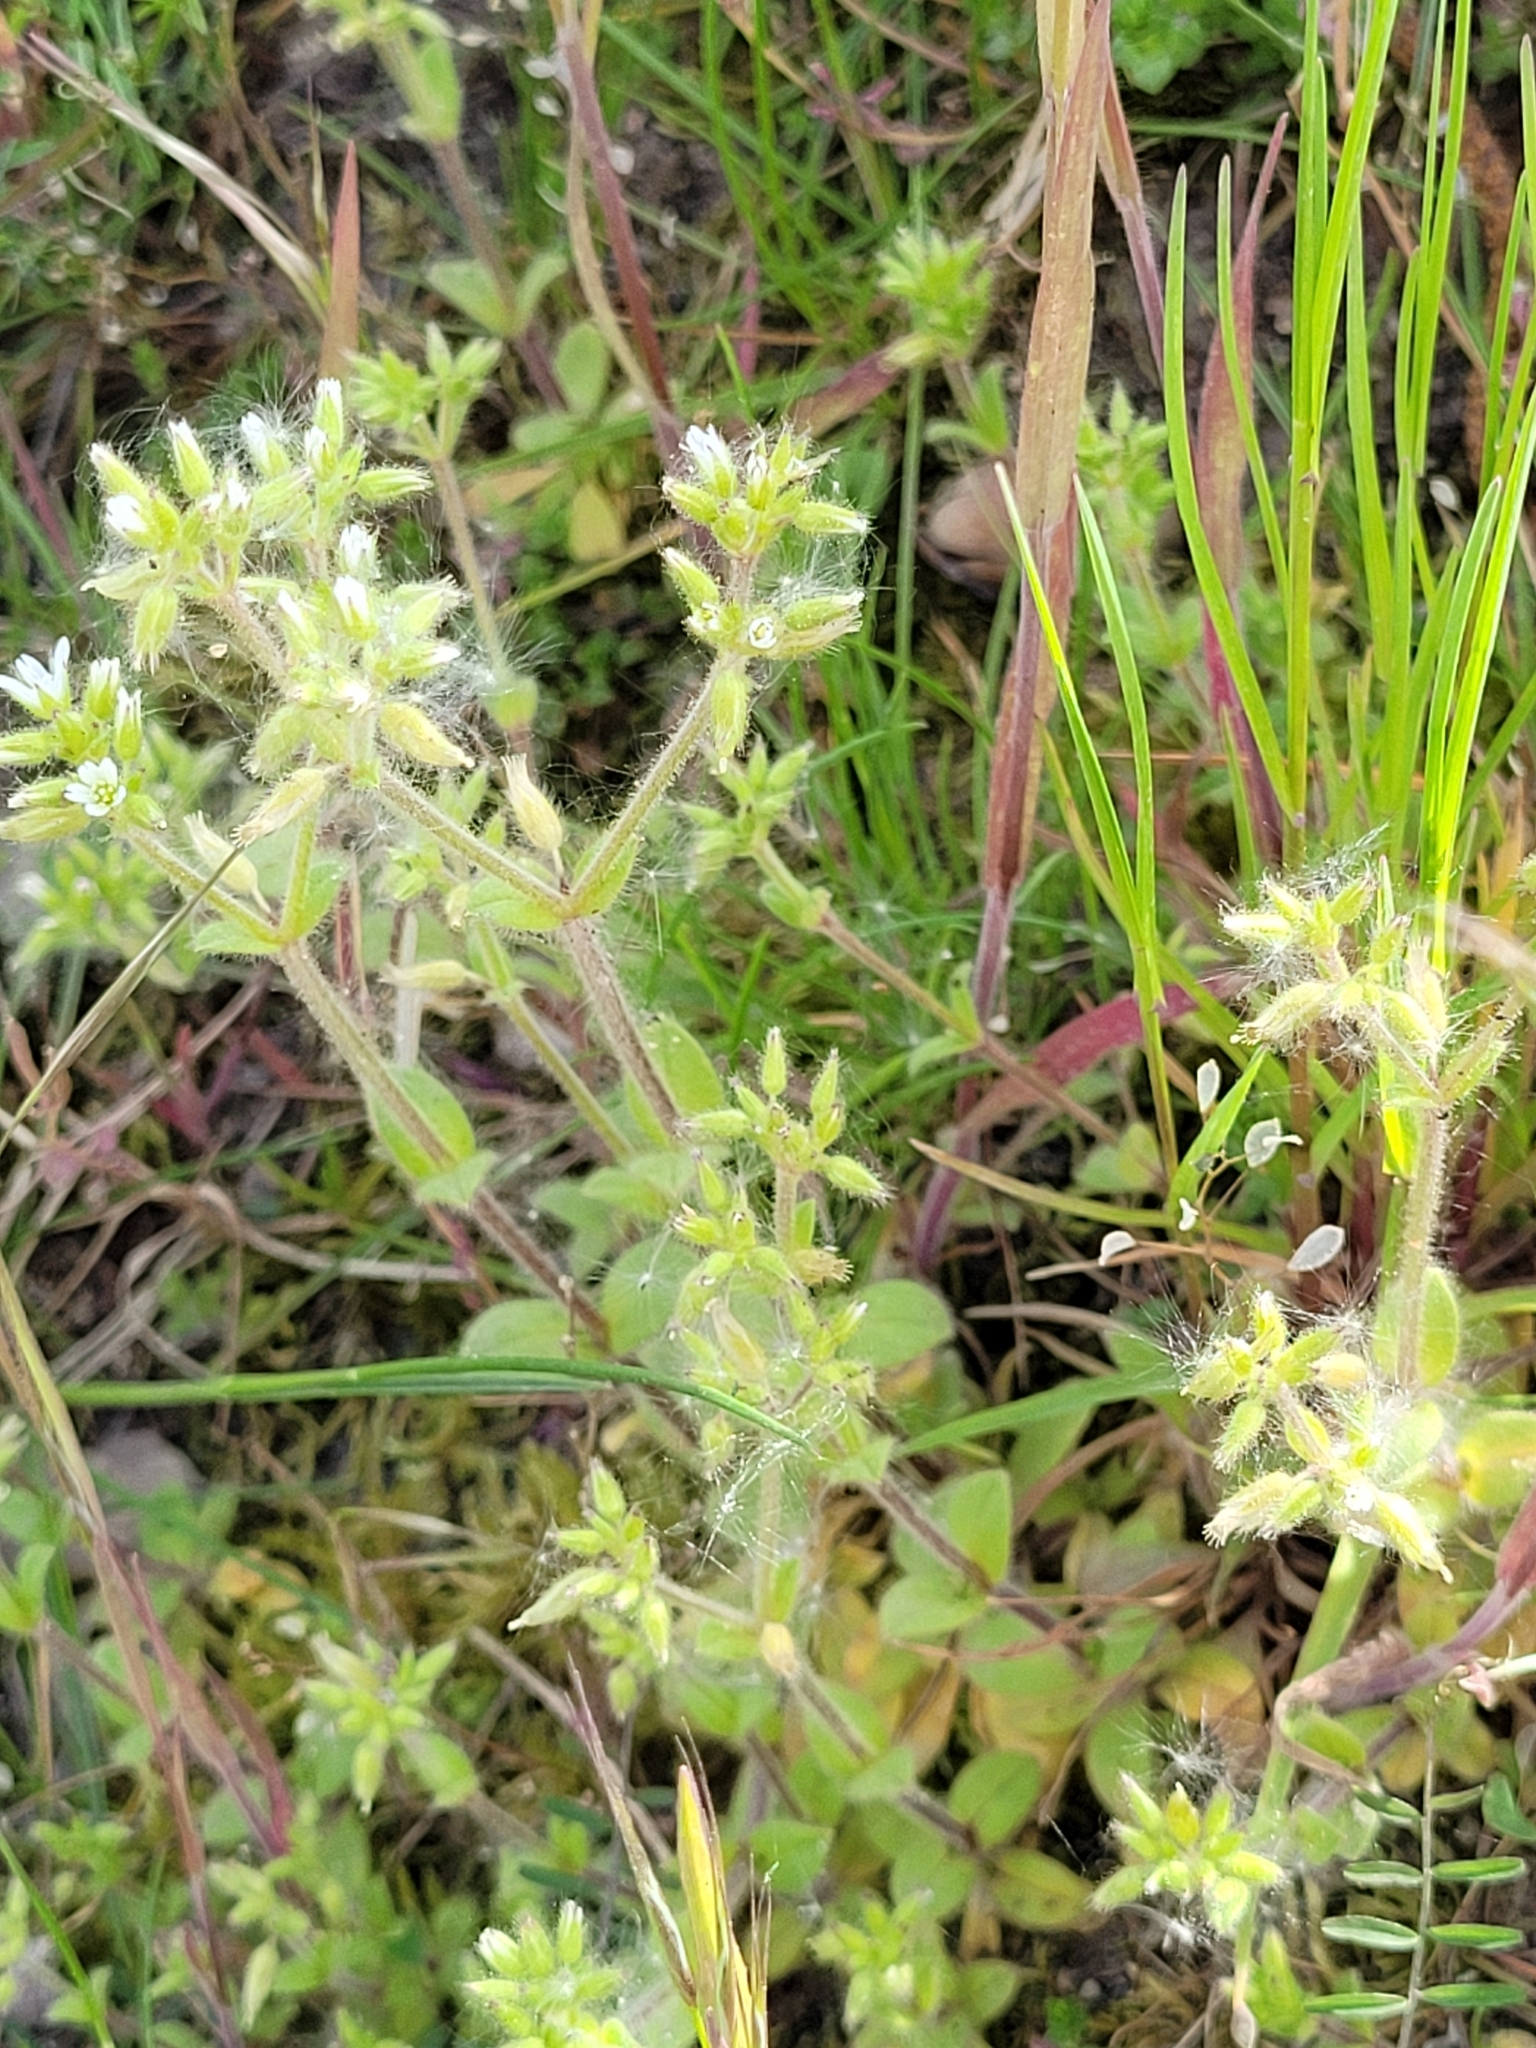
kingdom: Plantae
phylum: Tracheophyta
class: Magnoliopsida
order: Caryophyllales
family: Caryophyllaceae
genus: Cerastium
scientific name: Cerastium glomeratum
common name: Sticky chickweed
